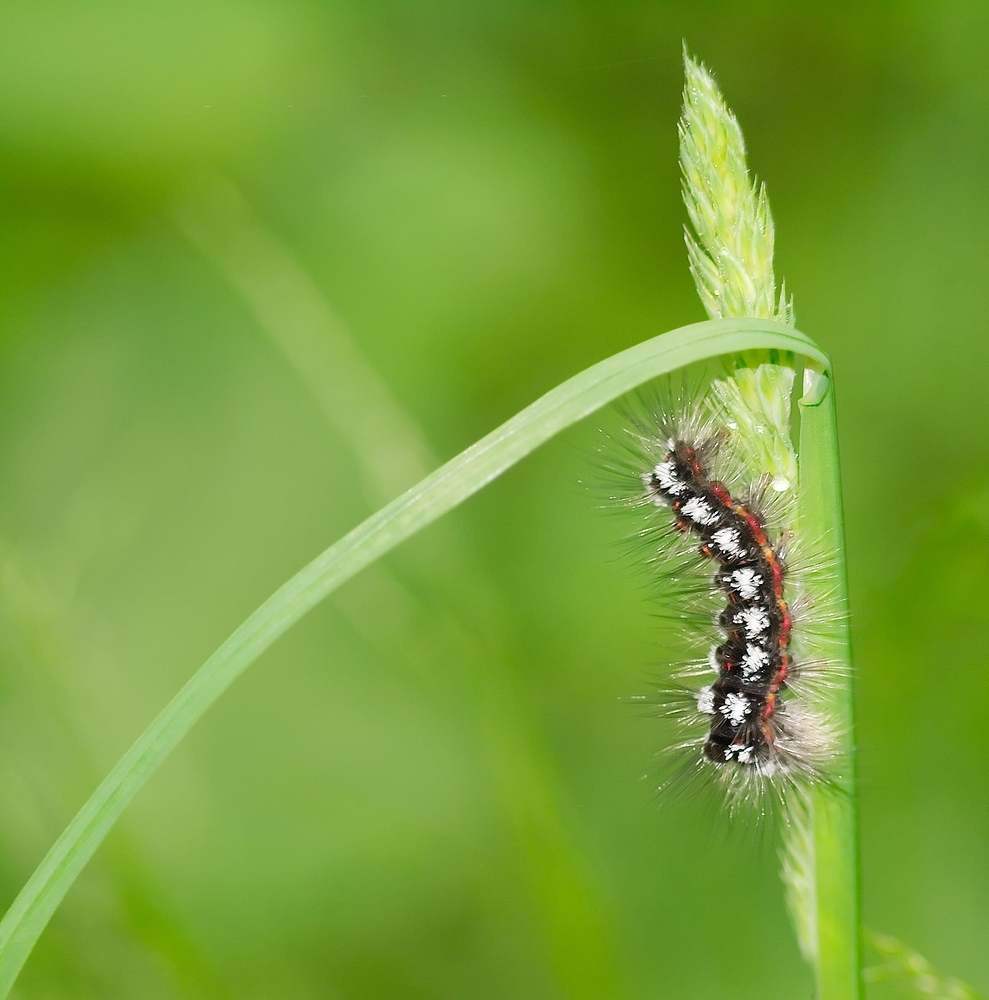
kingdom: Animalia
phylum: Arthropoda
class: Insecta
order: Lepidoptera
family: Erebidae
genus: Sphrageidus
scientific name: Sphrageidus similis
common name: Yellow-tail
